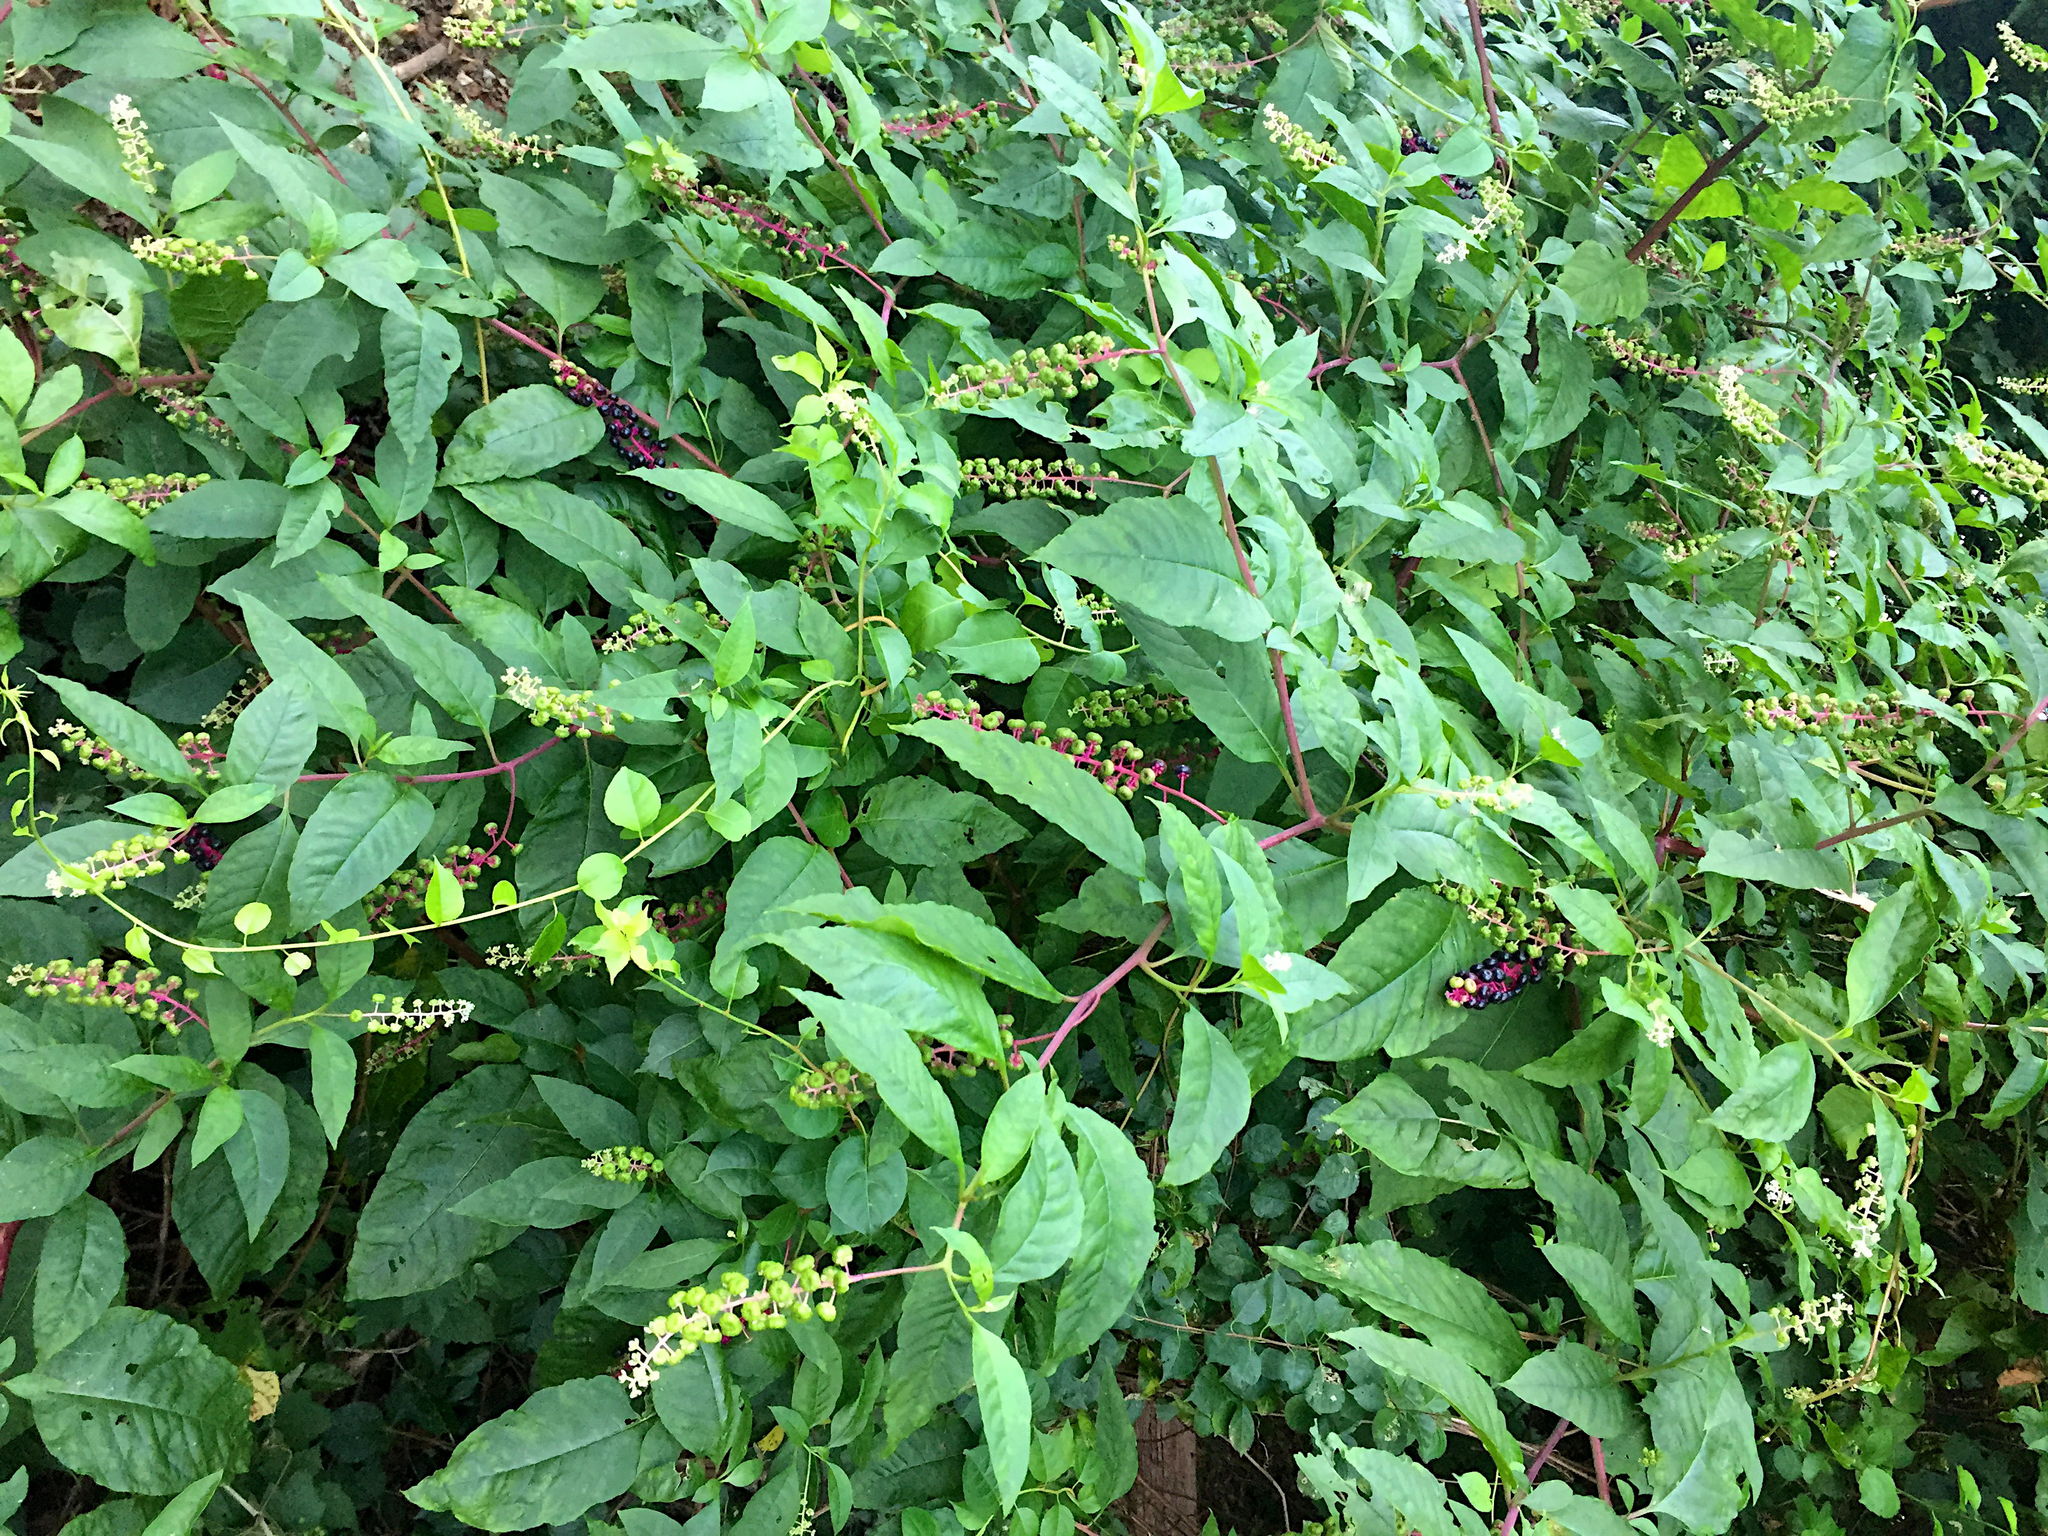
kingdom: Plantae
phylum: Tracheophyta
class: Magnoliopsida
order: Caryophyllales
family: Phytolaccaceae
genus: Phytolacca
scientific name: Phytolacca americana
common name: American pokeweed
